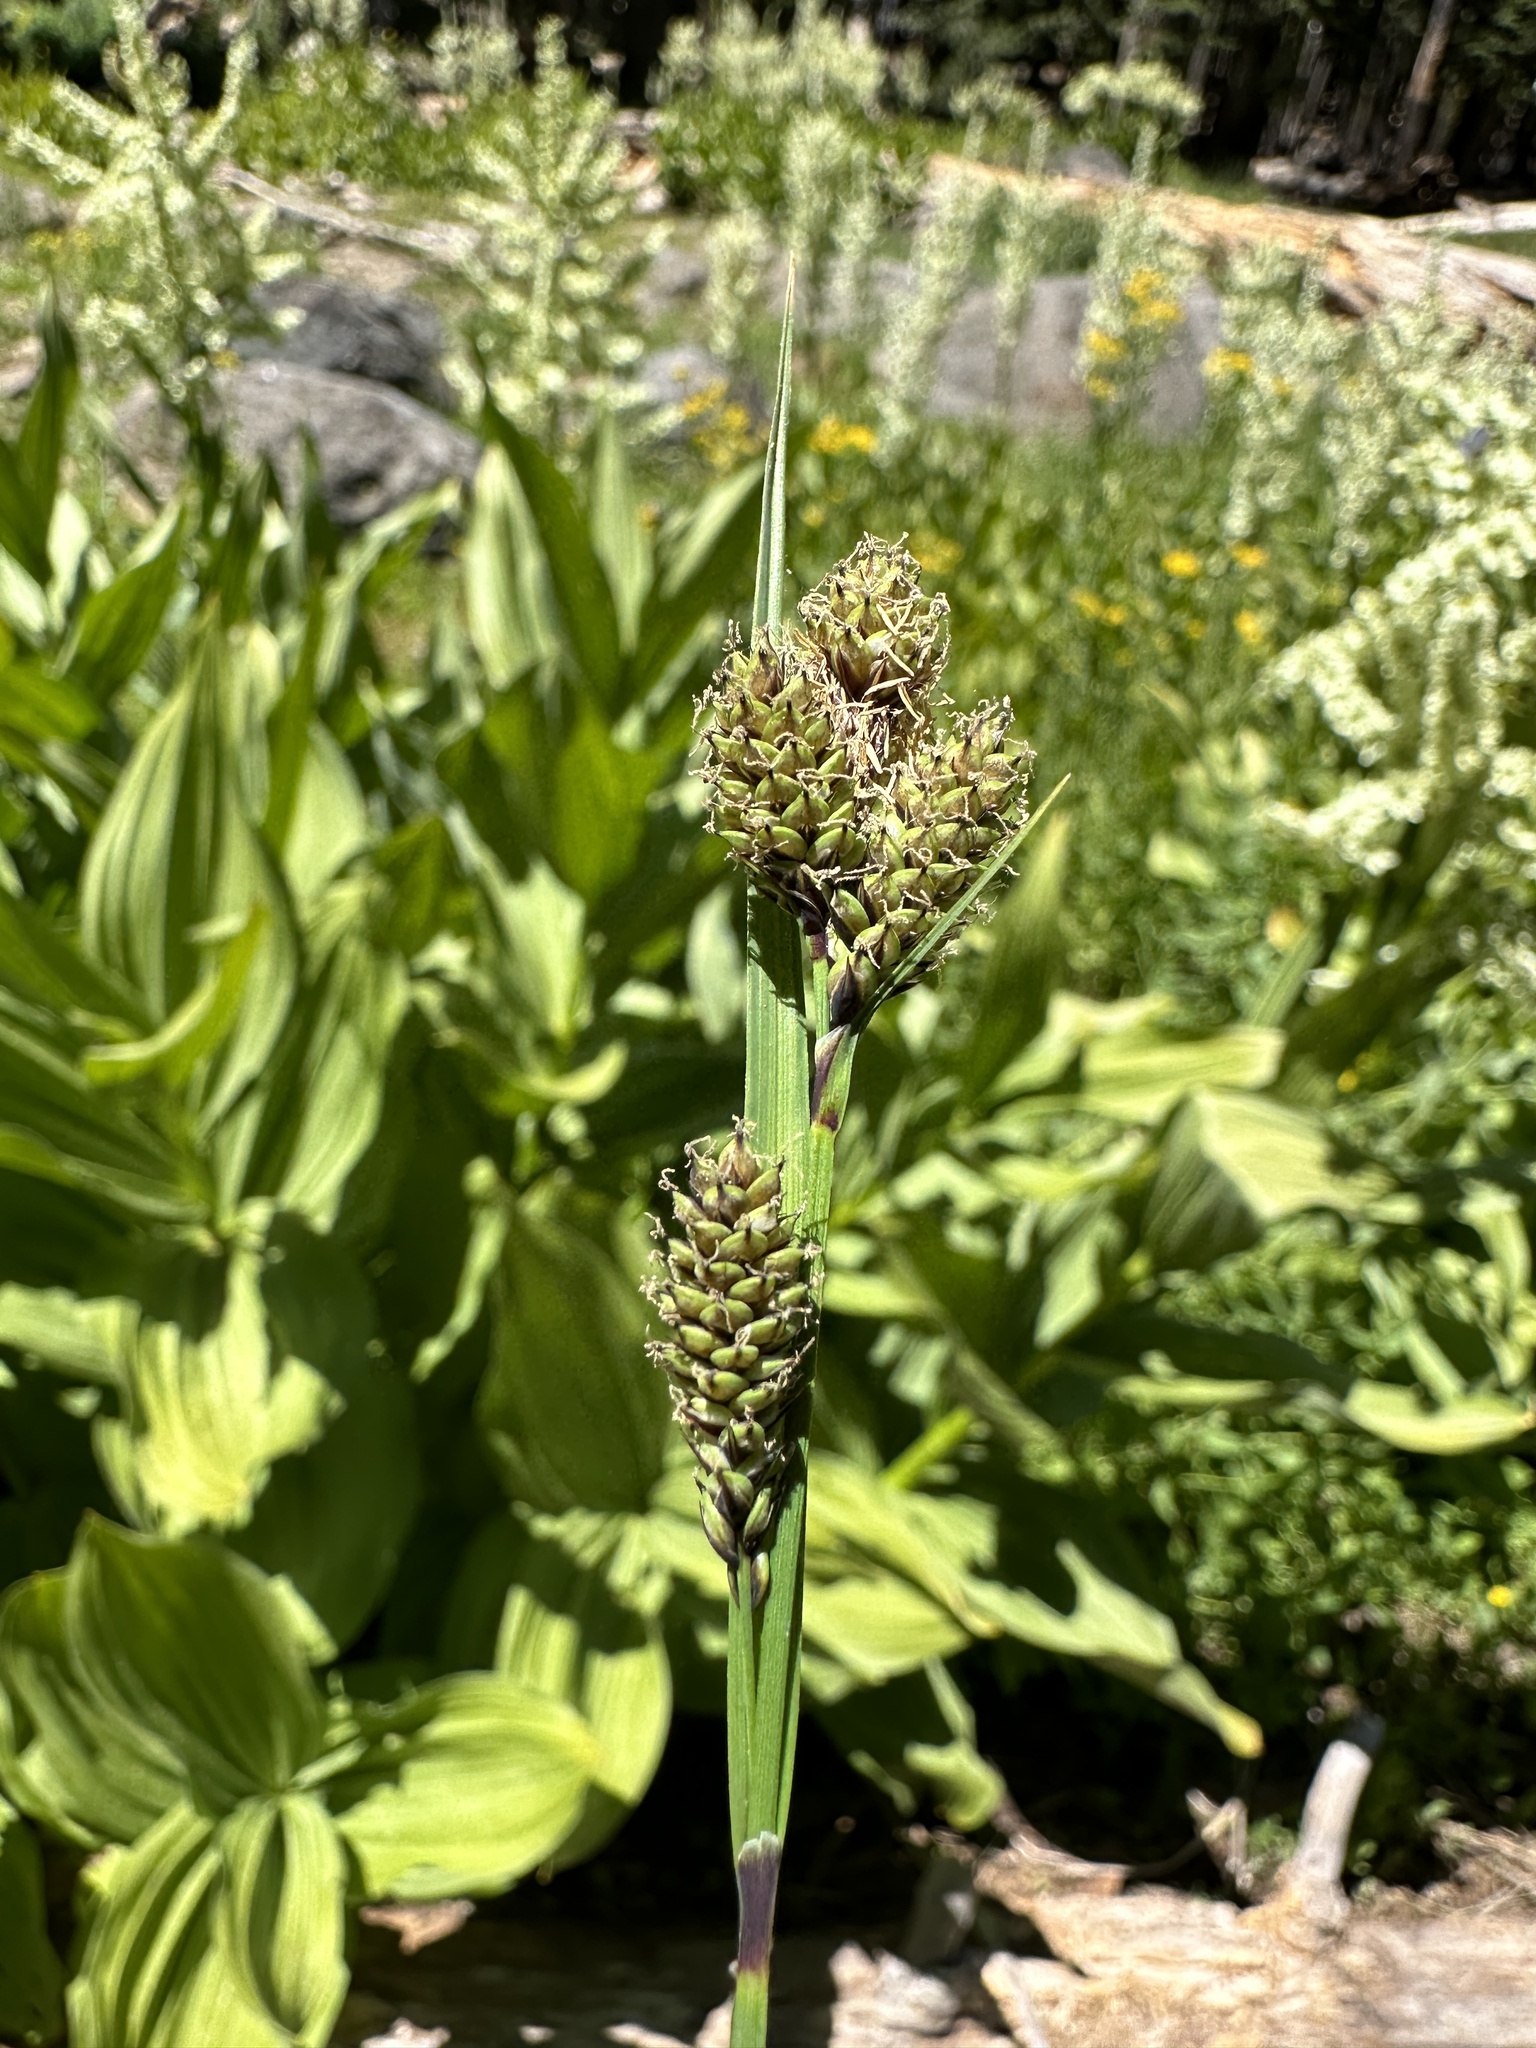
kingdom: Plantae
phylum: Tracheophyta
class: Liliopsida
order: Poales
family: Cyperaceae
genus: Carex
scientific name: Carex heteroneura
